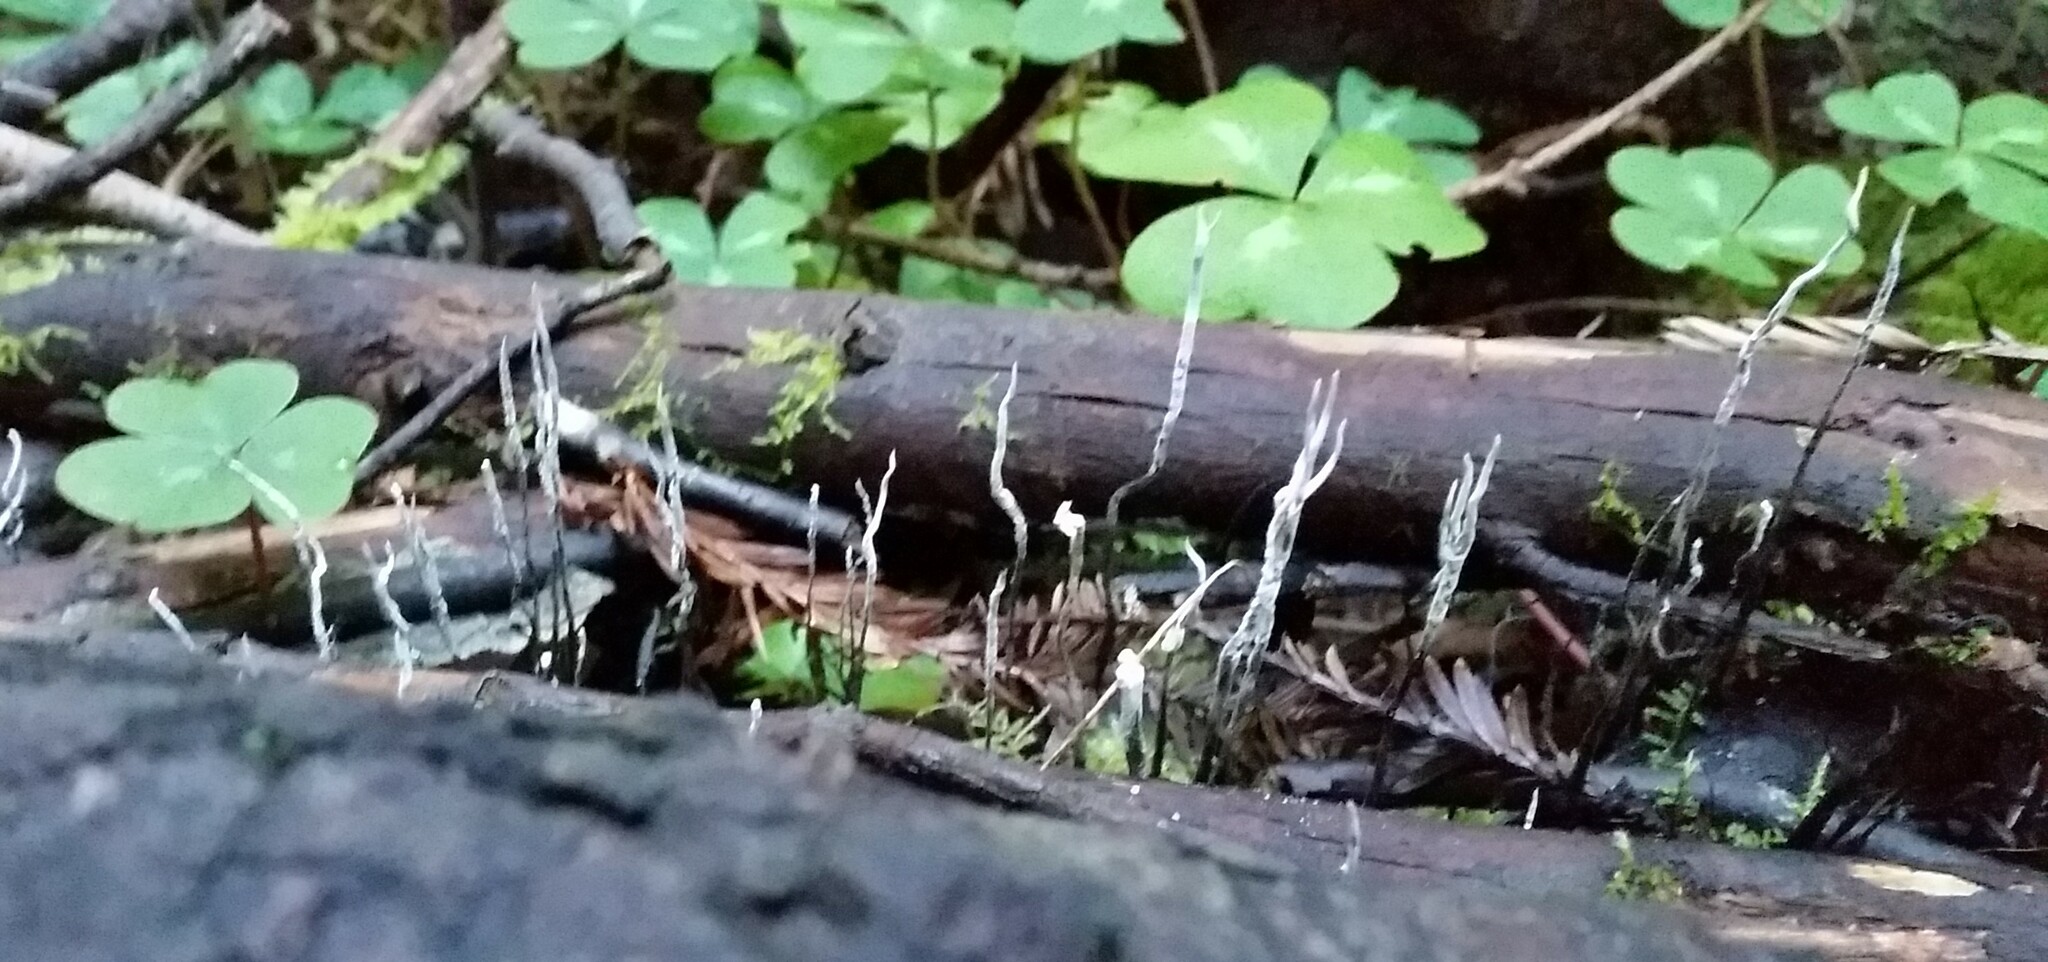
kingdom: Fungi
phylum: Ascomycota
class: Sordariomycetes
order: Xylariales
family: Xylariaceae
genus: Xylaria
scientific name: Xylaria hypoxylon
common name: Candle-snuff fungus
